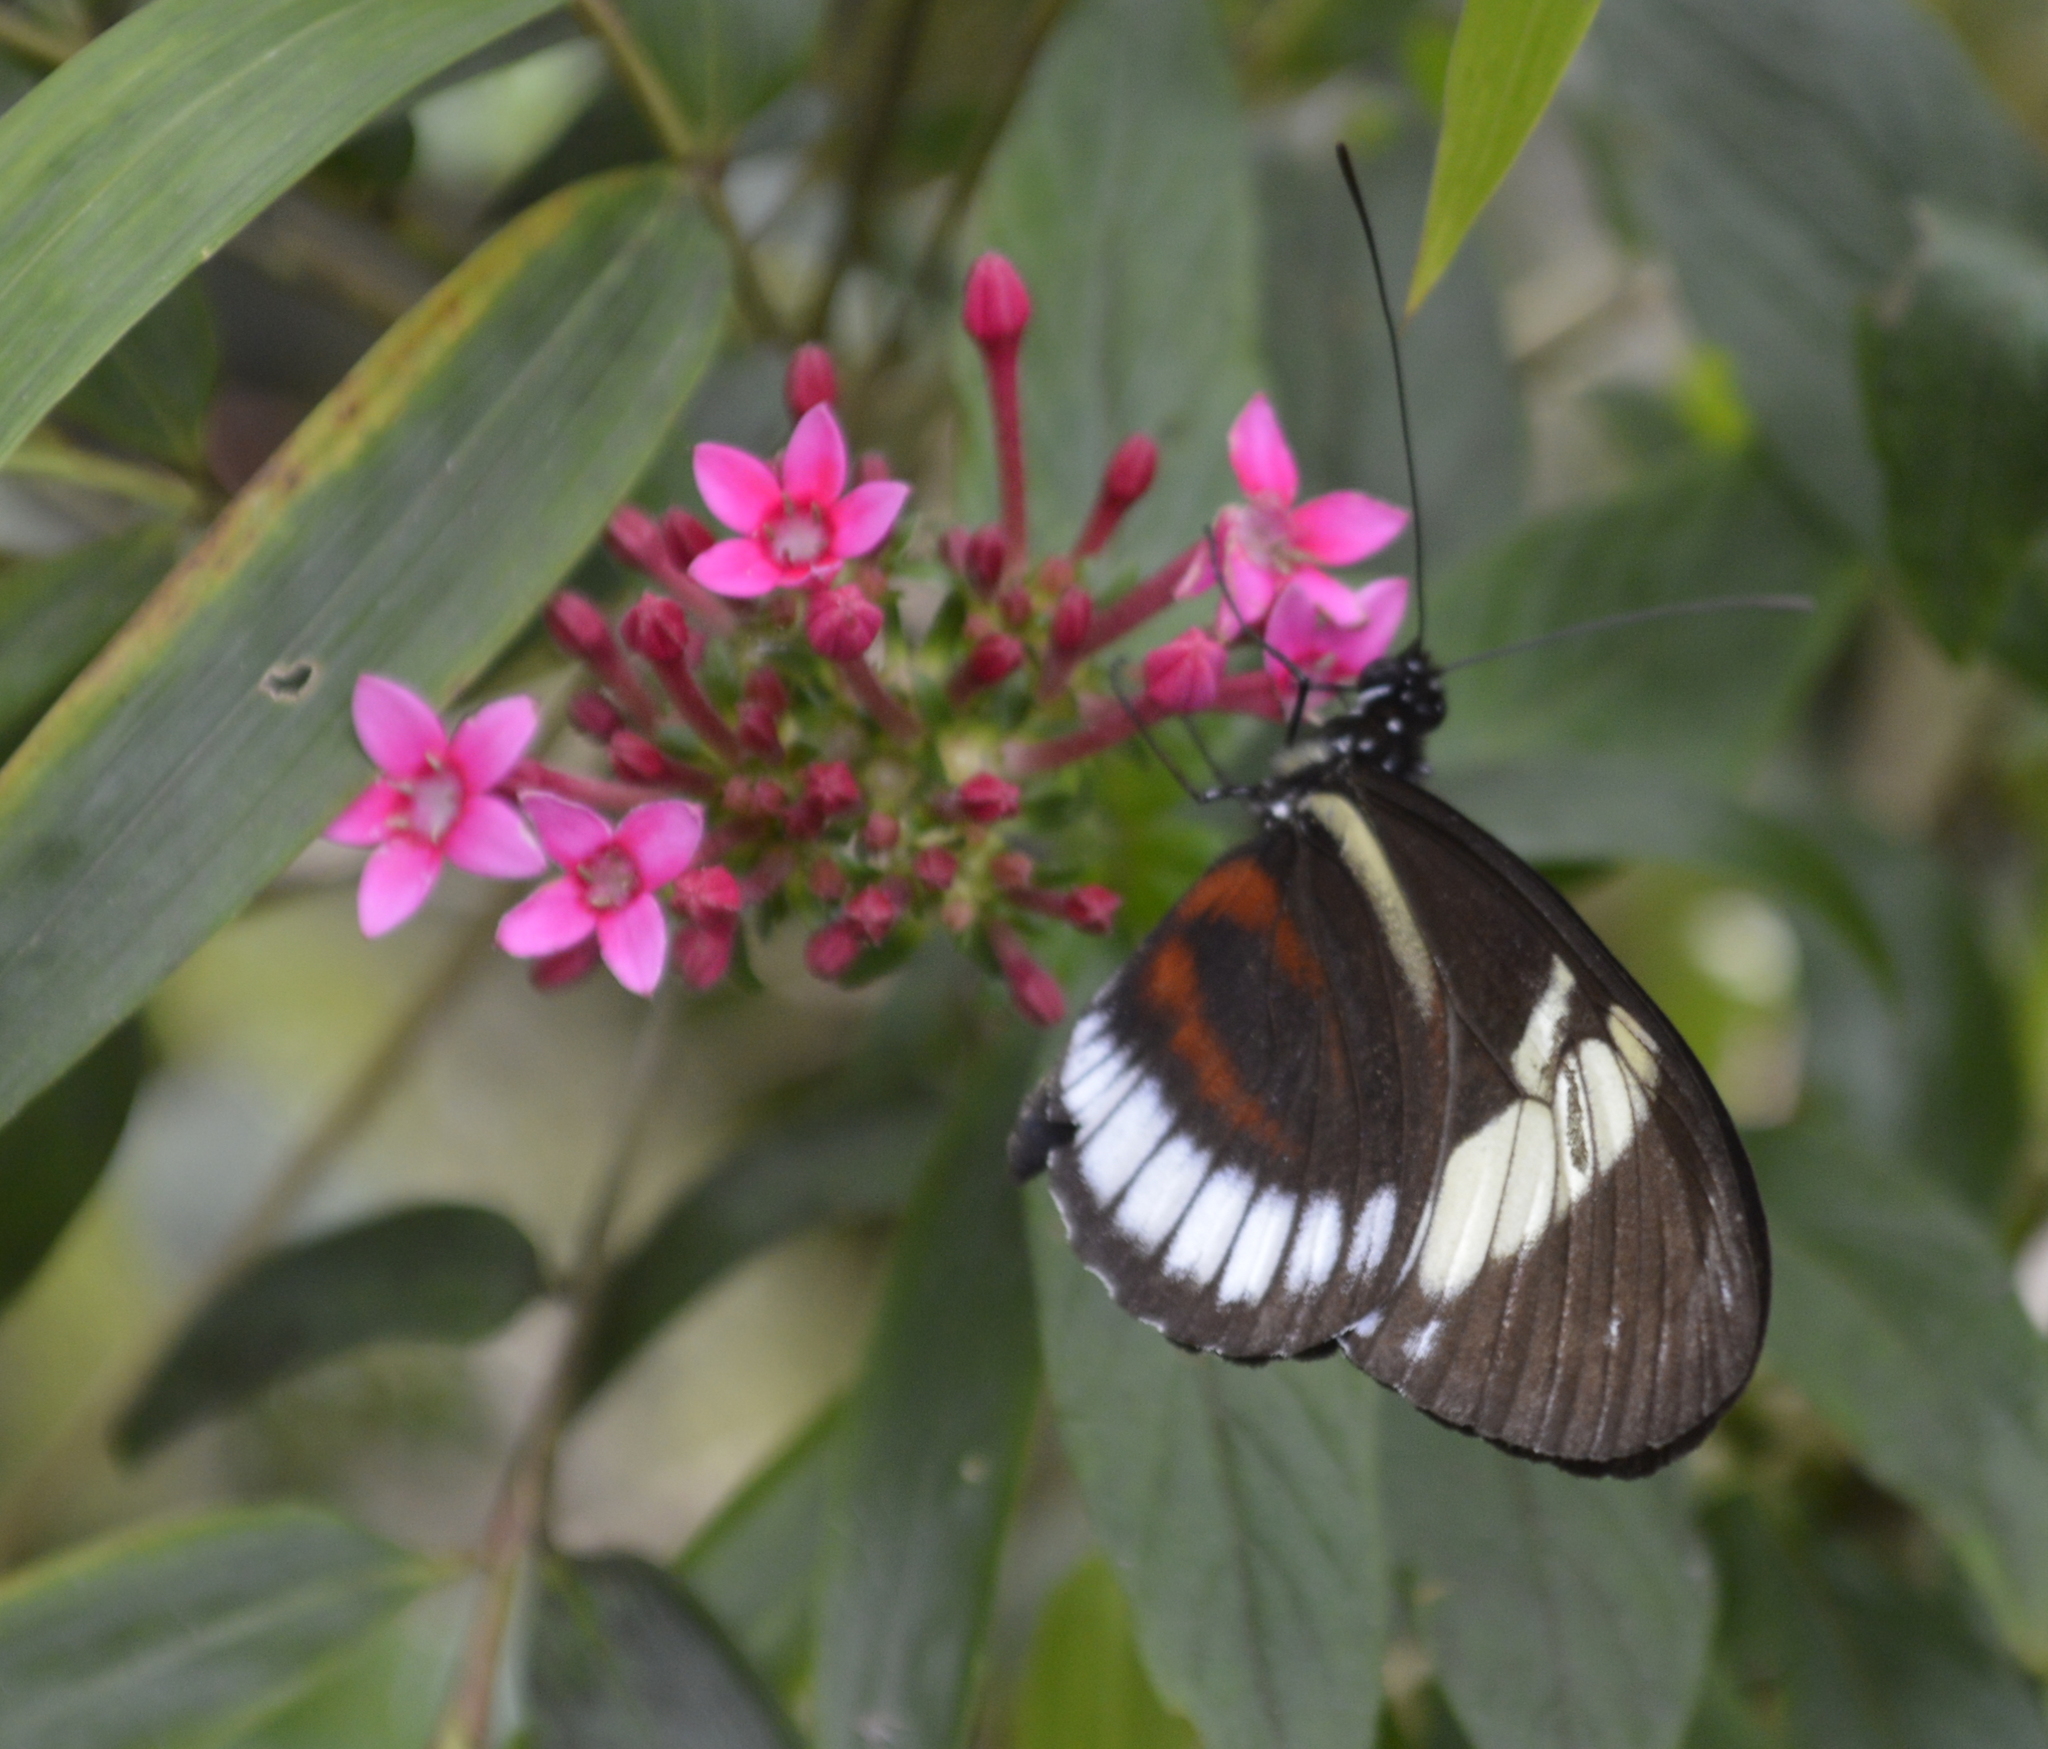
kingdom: Animalia
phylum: Arthropoda
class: Insecta
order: Lepidoptera
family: Nymphalidae
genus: Heliconius
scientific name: Heliconius cydno
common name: Cydno longwing
